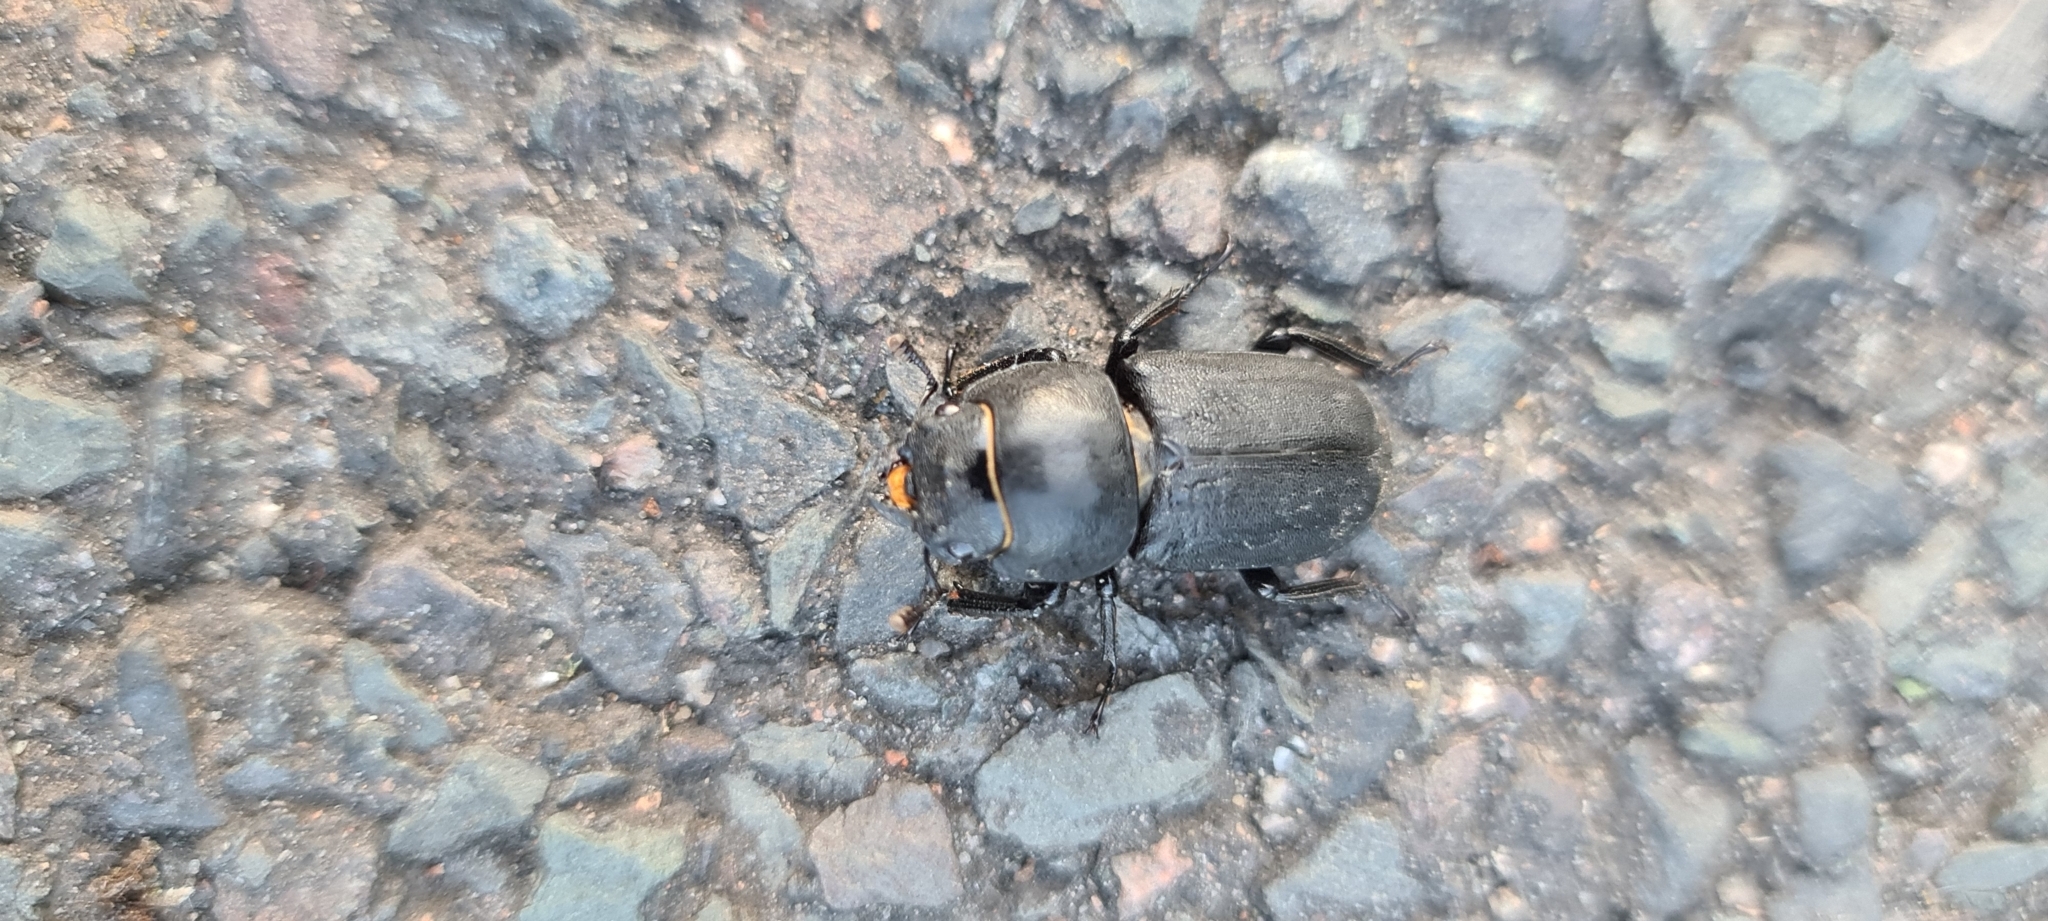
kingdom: Animalia
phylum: Arthropoda
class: Insecta
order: Coleoptera
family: Lucanidae
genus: Dorcus
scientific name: Dorcus parallelipipedus
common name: Lesser stag beetle
